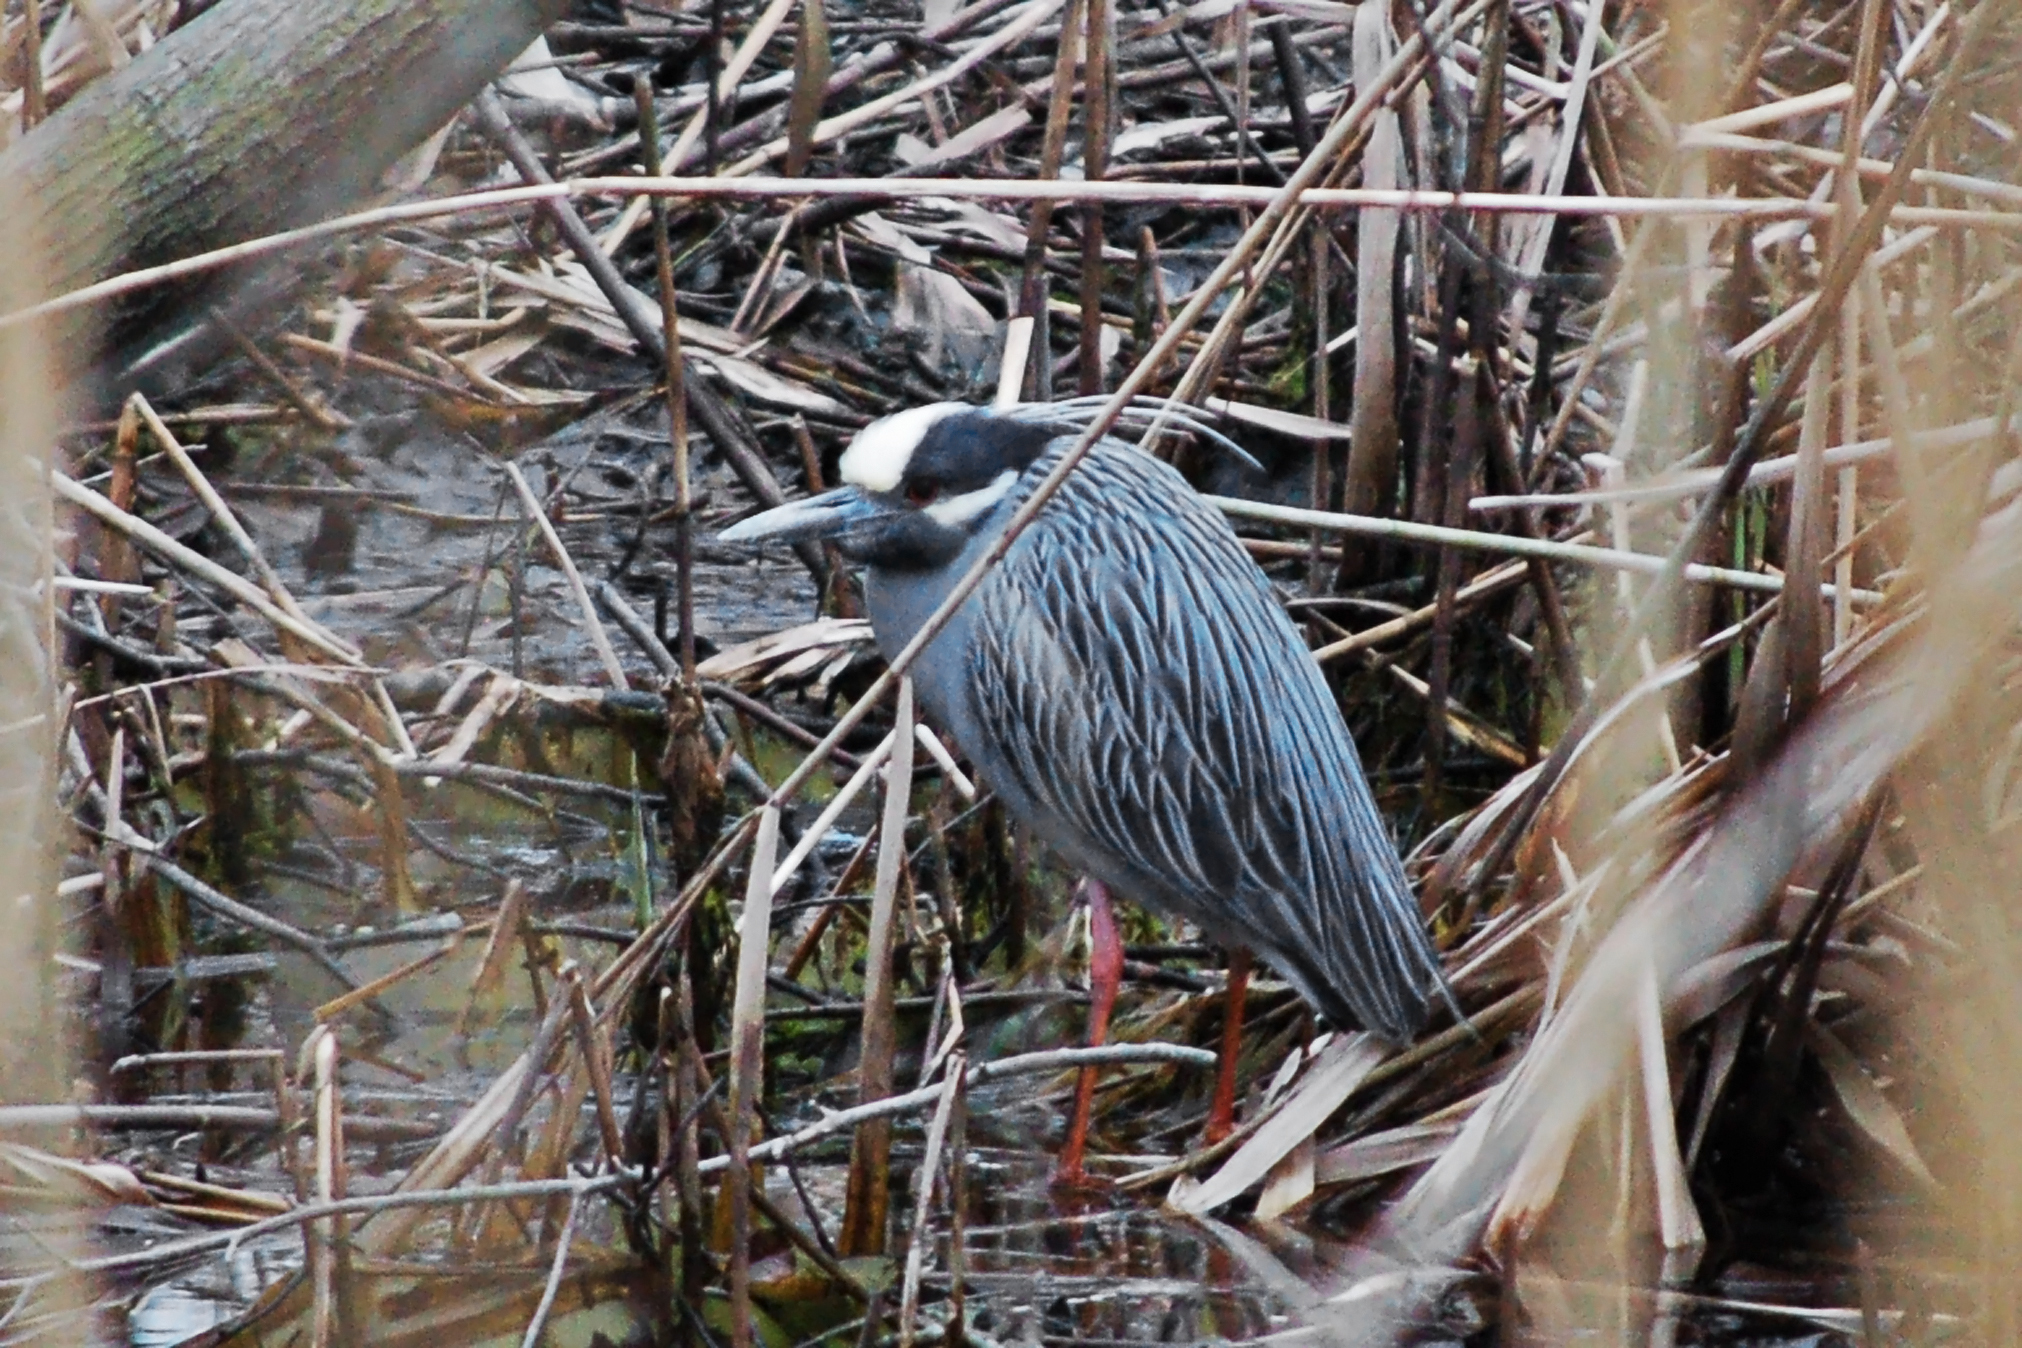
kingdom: Animalia
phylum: Chordata
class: Aves
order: Pelecaniformes
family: Ardeidae
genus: Nyctanassa
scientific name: Nyctanassa violacea
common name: Yellow-crowned night heron
